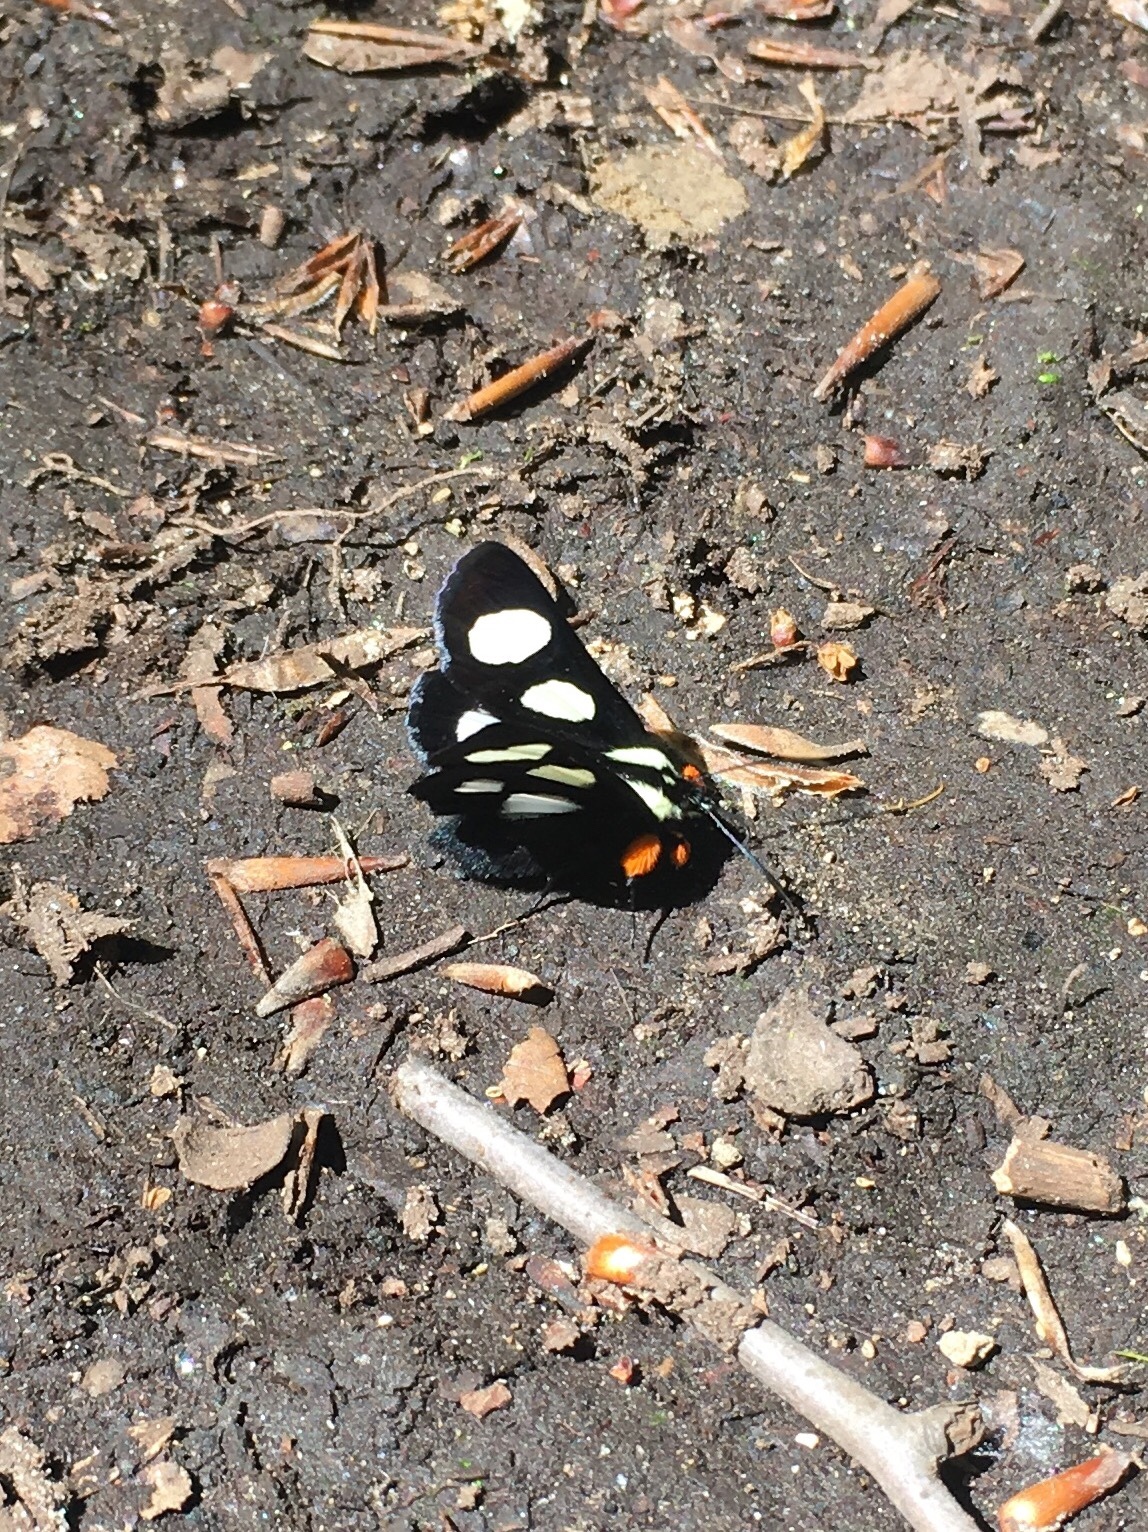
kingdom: Animalia
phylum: Arthropoda
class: Insecta
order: Lepidoptera
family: Noctuidae
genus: Alypia
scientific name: Alypia octomaculata
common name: Eight-spotted forester
